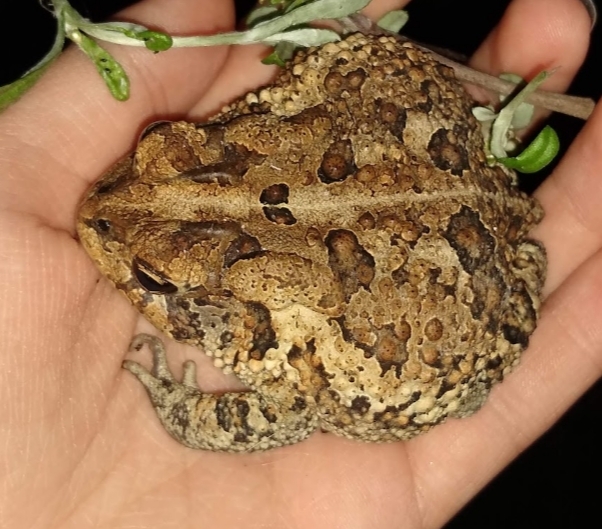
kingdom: Animalia
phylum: Chordata
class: Amphibia
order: Anura
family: Bufonidae
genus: Anaxyrus
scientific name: Anaxyrus terrestris
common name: Southern toad
